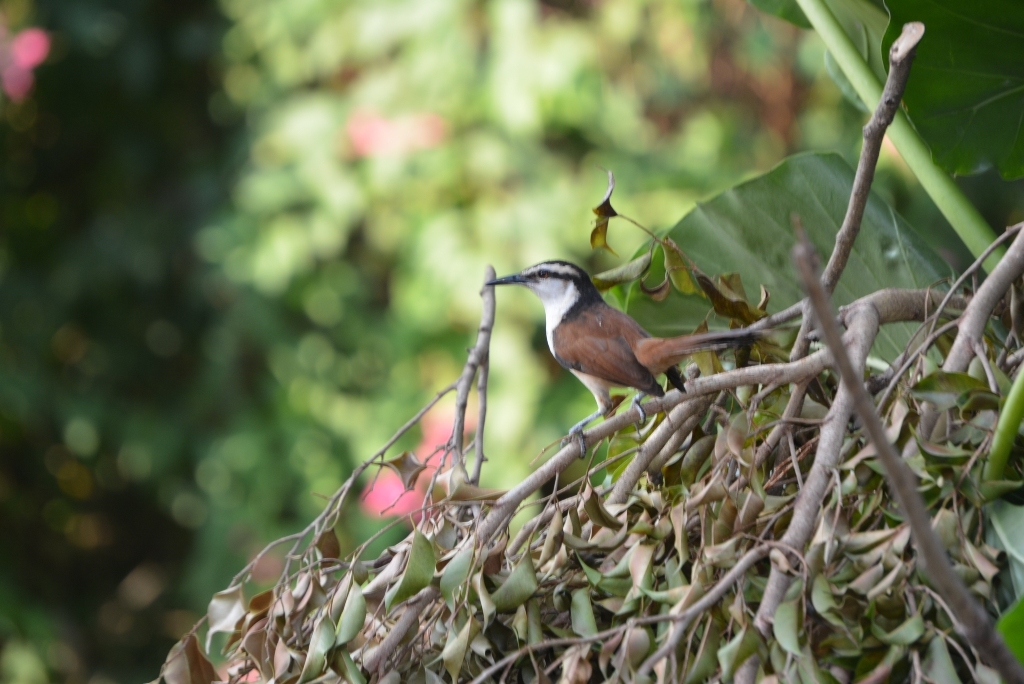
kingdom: Animalia
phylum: Chordata
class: Aves
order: Passeriformes
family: Troglodytidae
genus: Campylorhynchus
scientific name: Campylorhynchus chiapensis
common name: Giant wren
